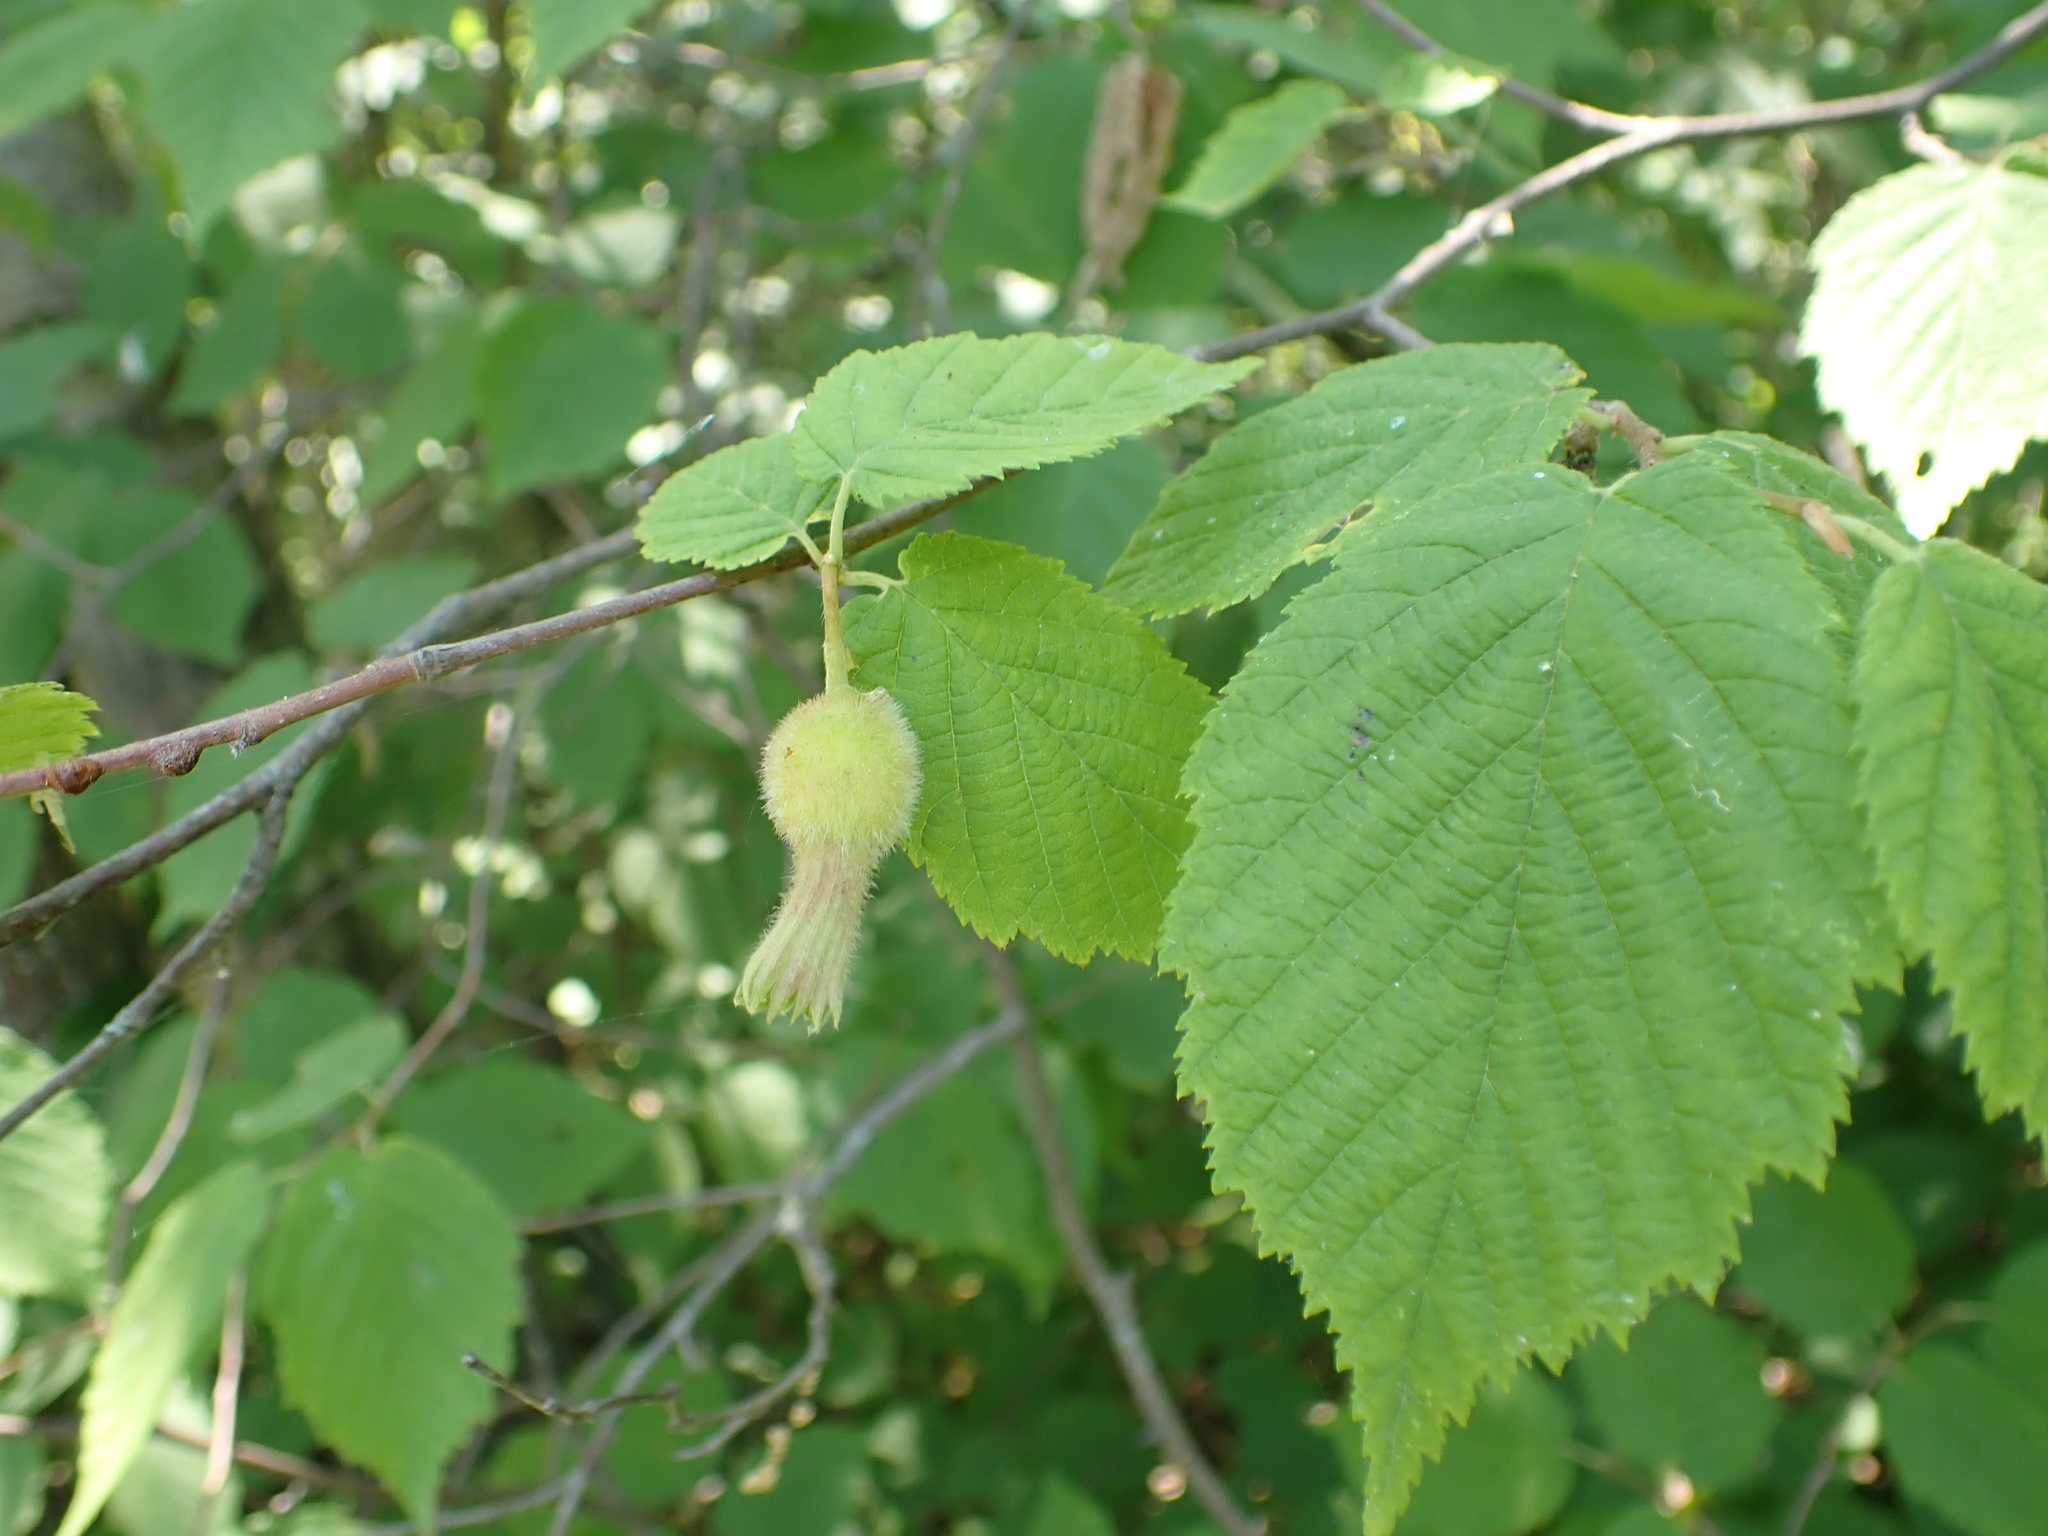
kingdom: Plantae
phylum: Tracheophyta
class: Magnoliopsida
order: Fagales
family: Betulaceae
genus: Corylus
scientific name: Corylus cornuta
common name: Beaked hazel
